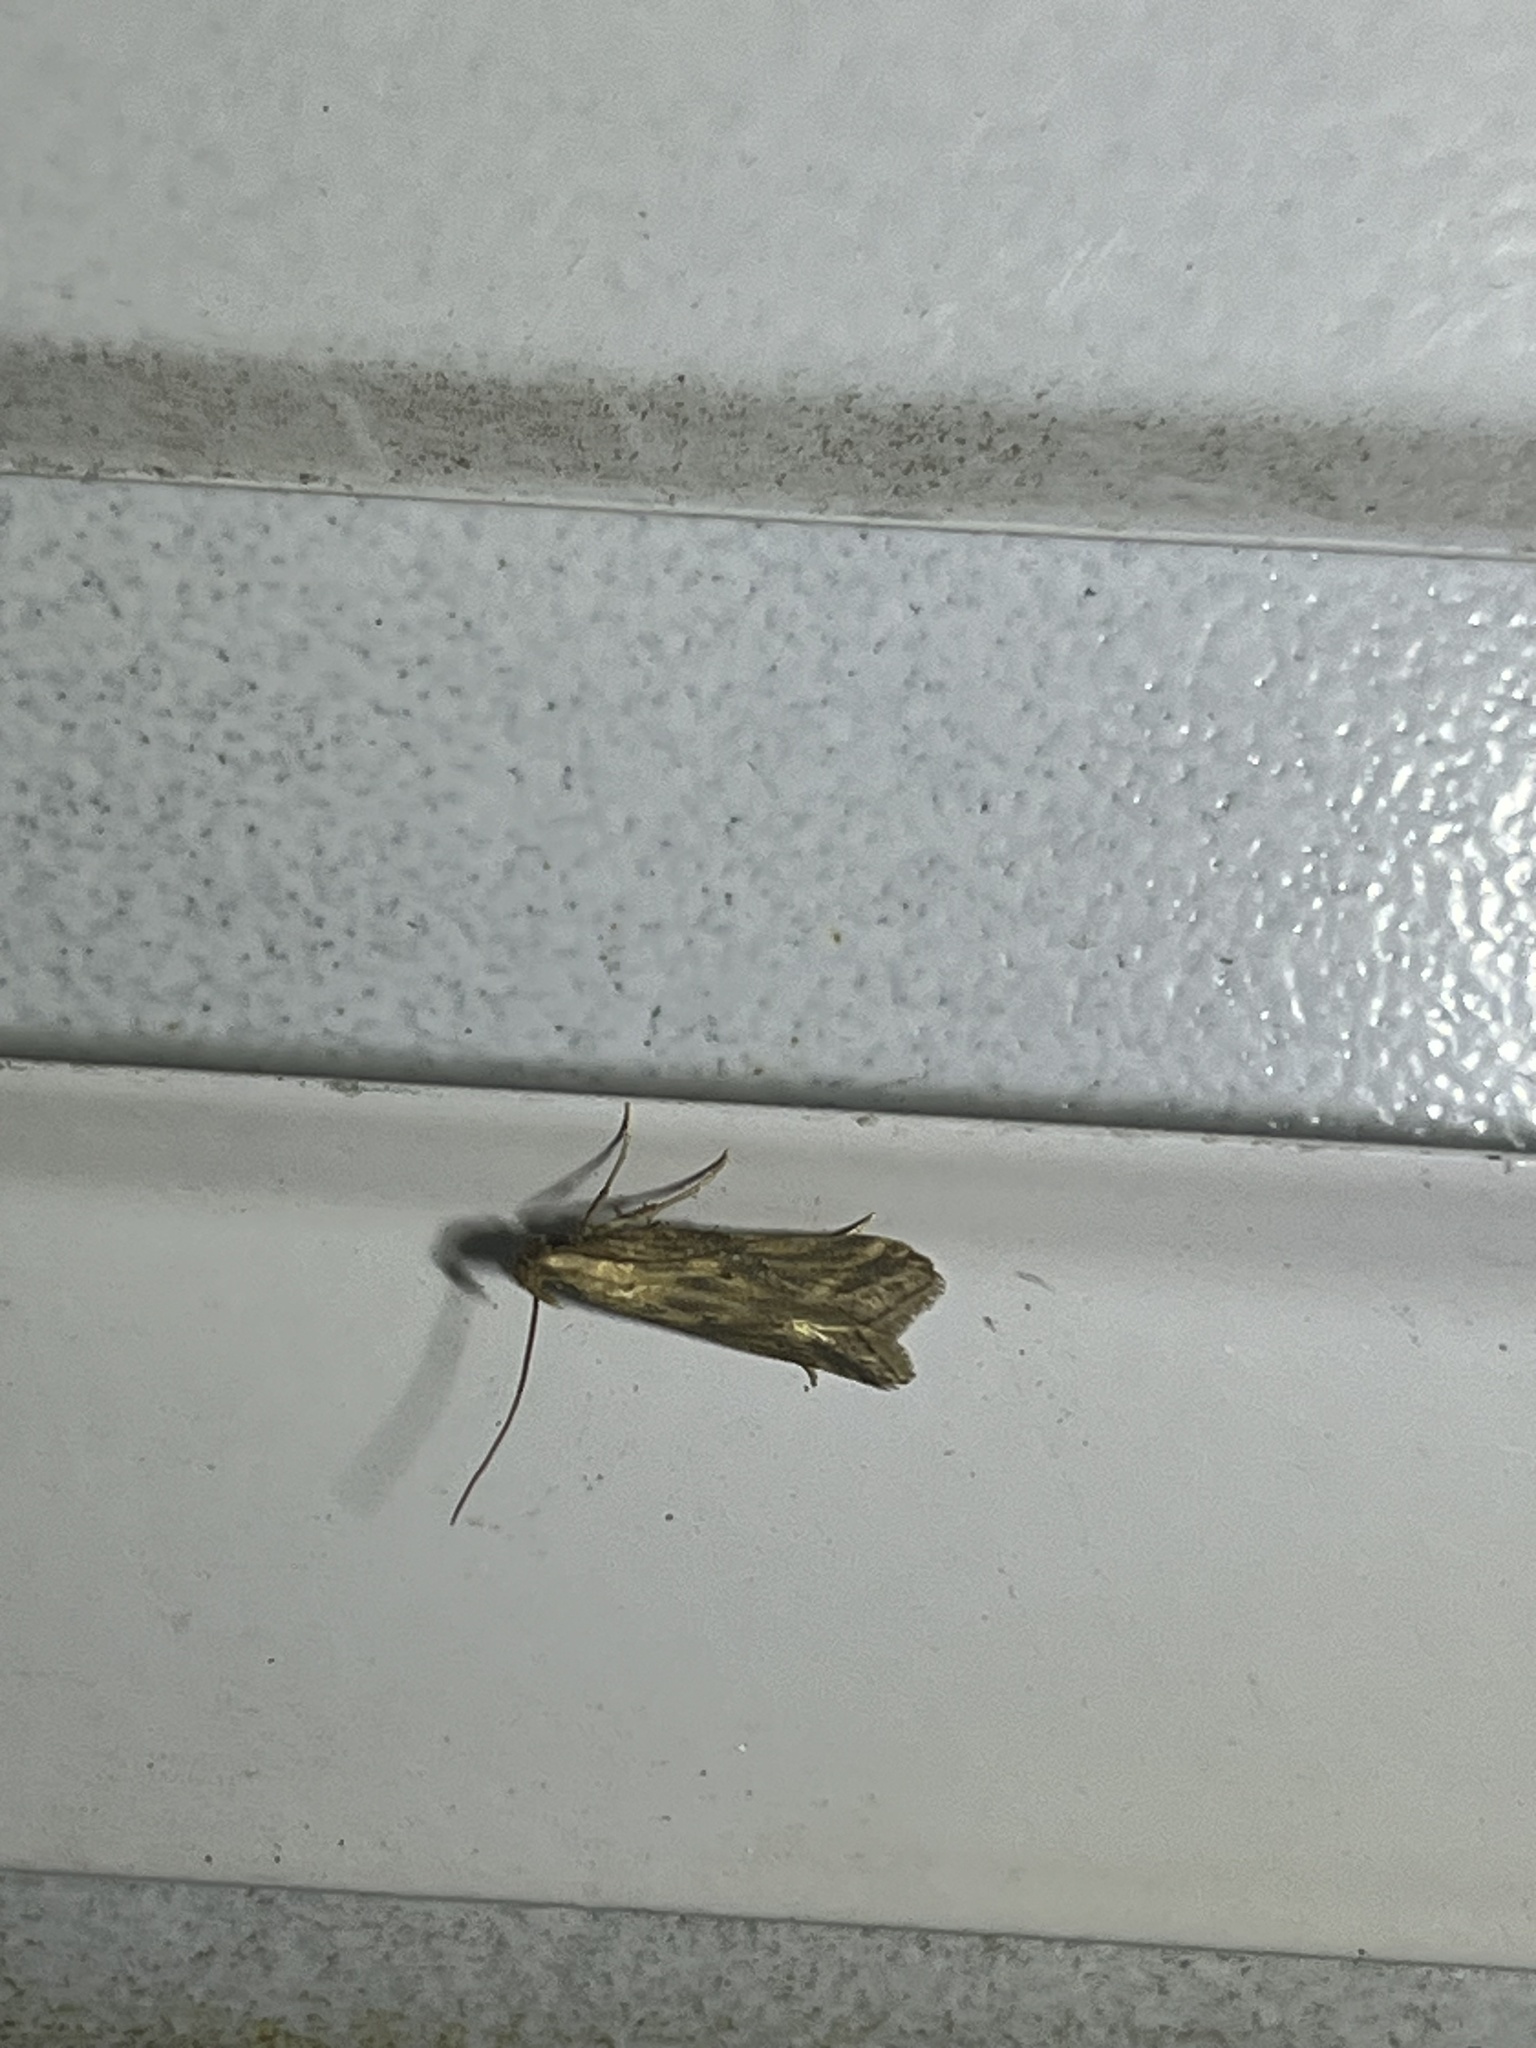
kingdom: Animalia
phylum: Arthropoda
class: Insecta
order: Lepidoptera
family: Gelechiidae
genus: Metzneria
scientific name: Metzneria lappella
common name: Burdock neb
